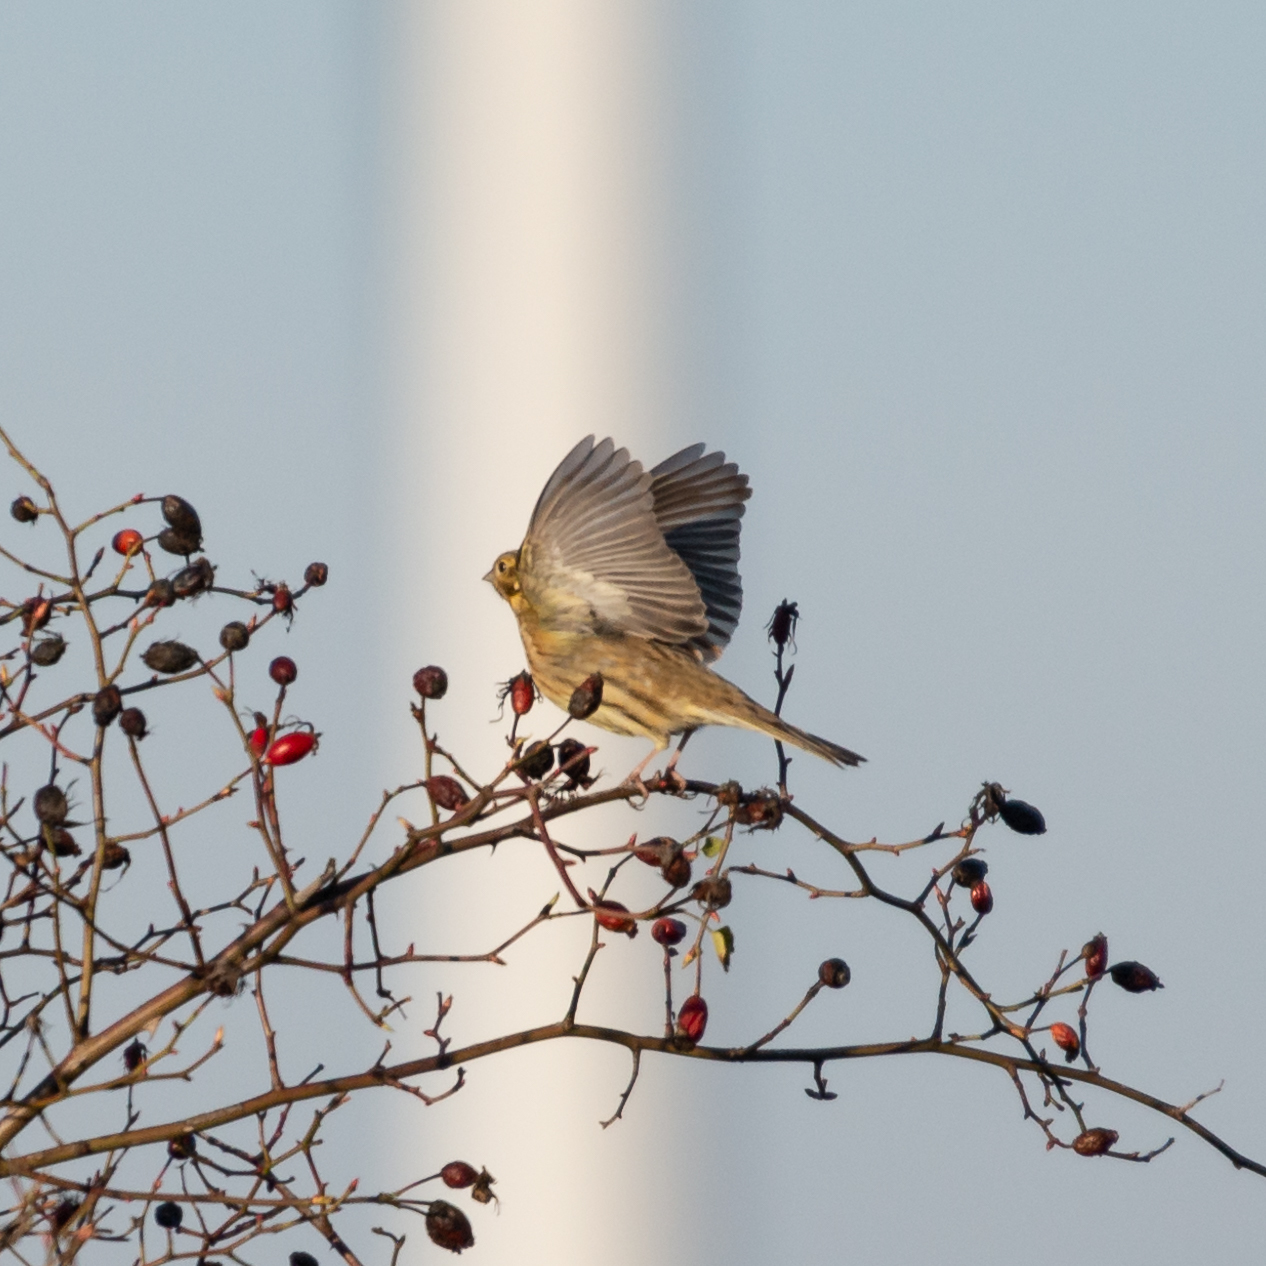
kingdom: Animalia
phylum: Chordata
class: Aves
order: Passeriformes
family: Emberizidae
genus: Emberiza
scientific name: Emberiza cirlus
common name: Cirl bunting
